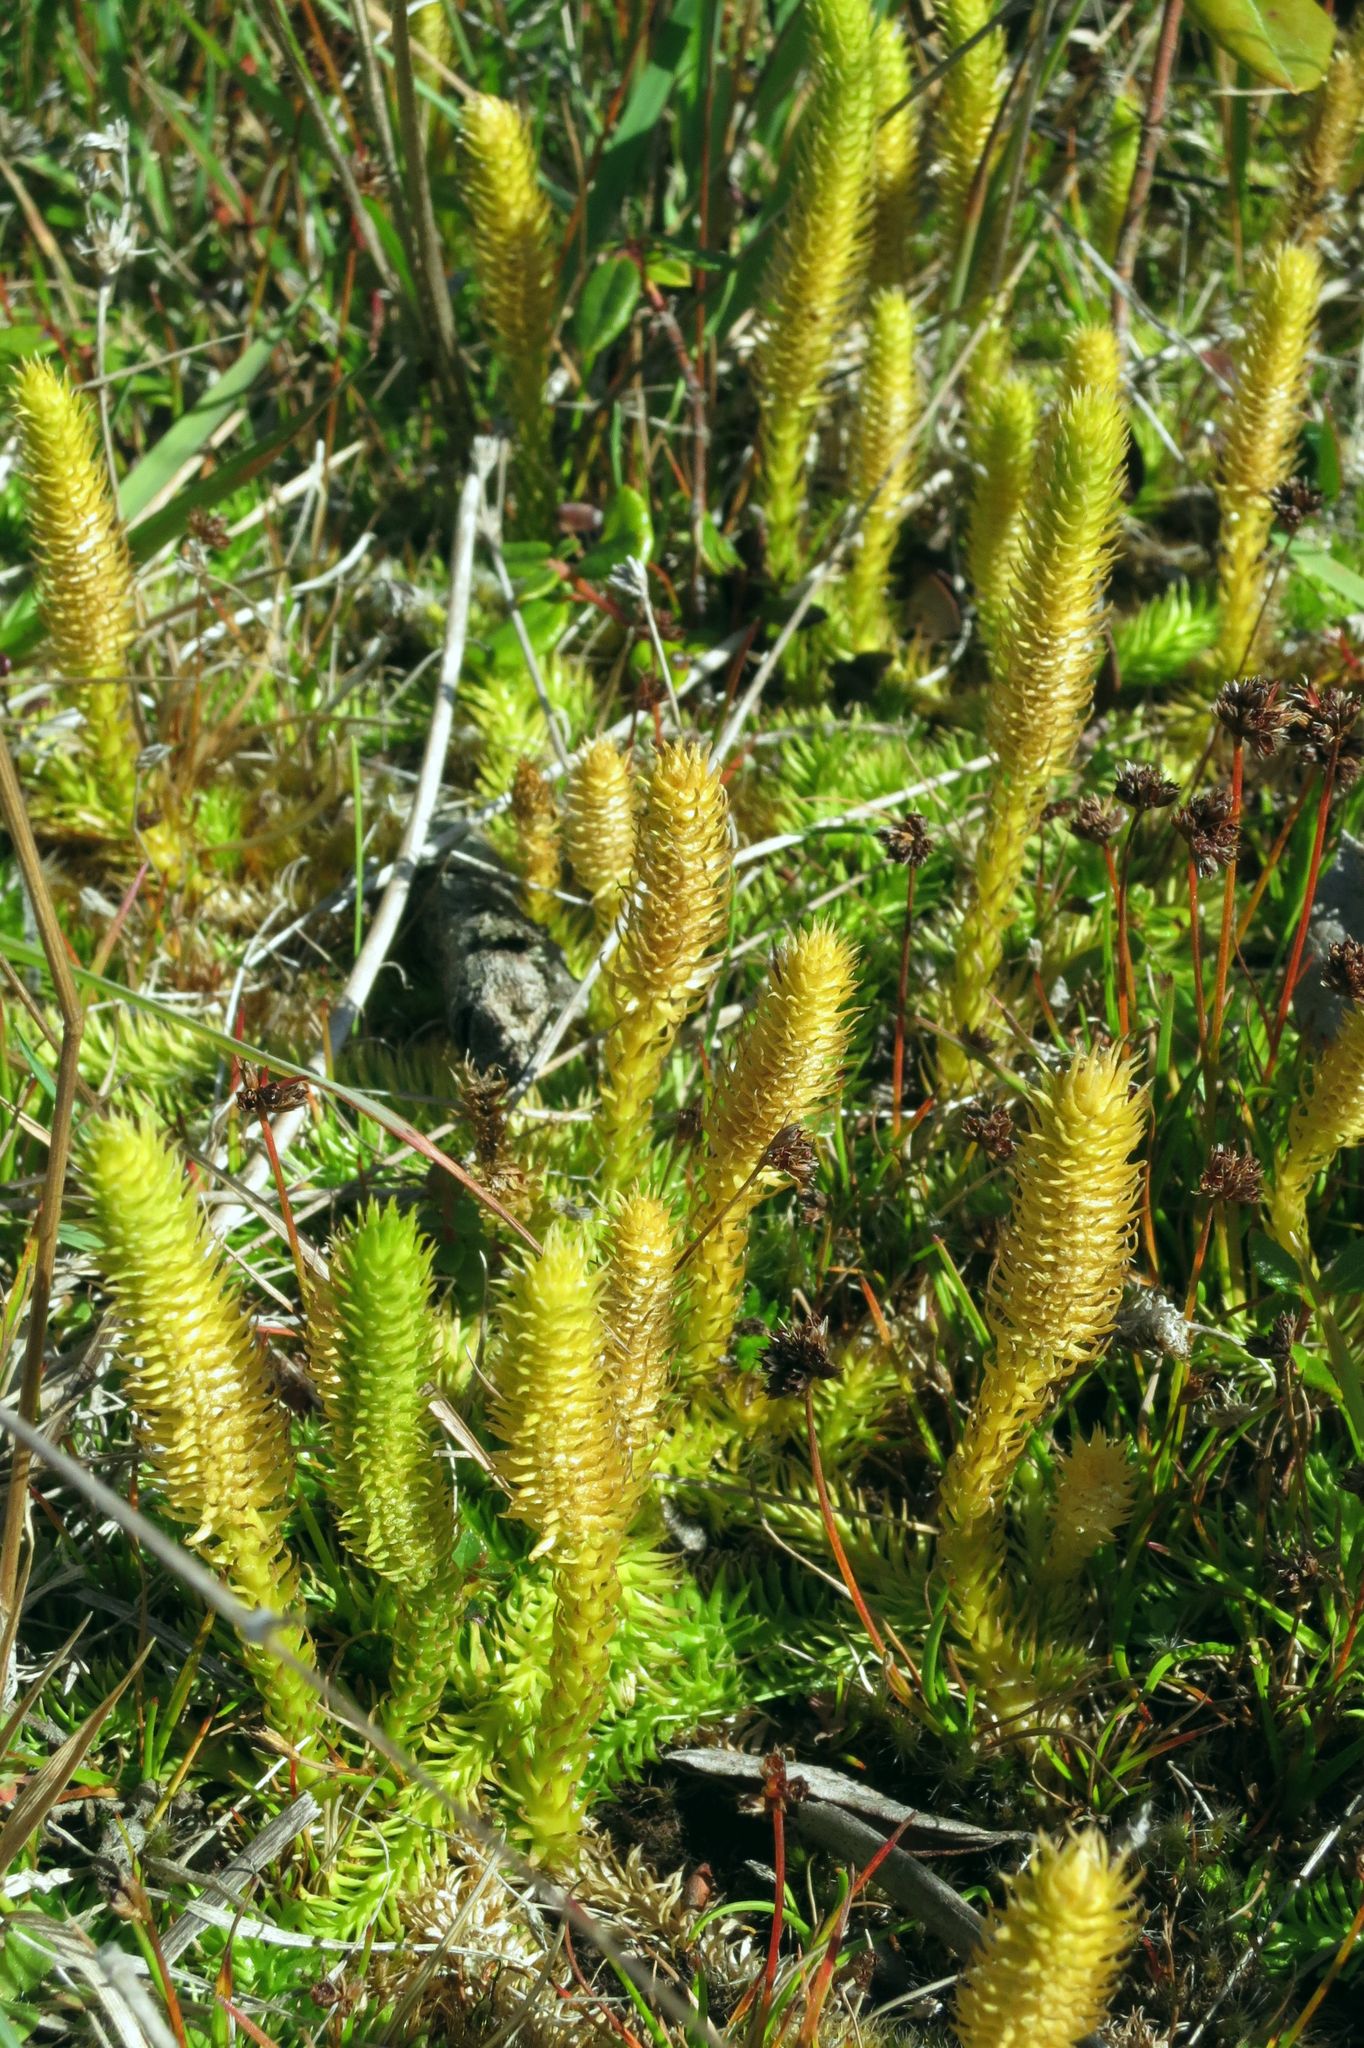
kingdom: Plantae
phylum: Tracheophyta
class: Lycopodiopsida
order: Lycopodiales
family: Lycopodiaceae
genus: Lycopodiella
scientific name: Lycopodiella inundata
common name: Marsh clubmoss
